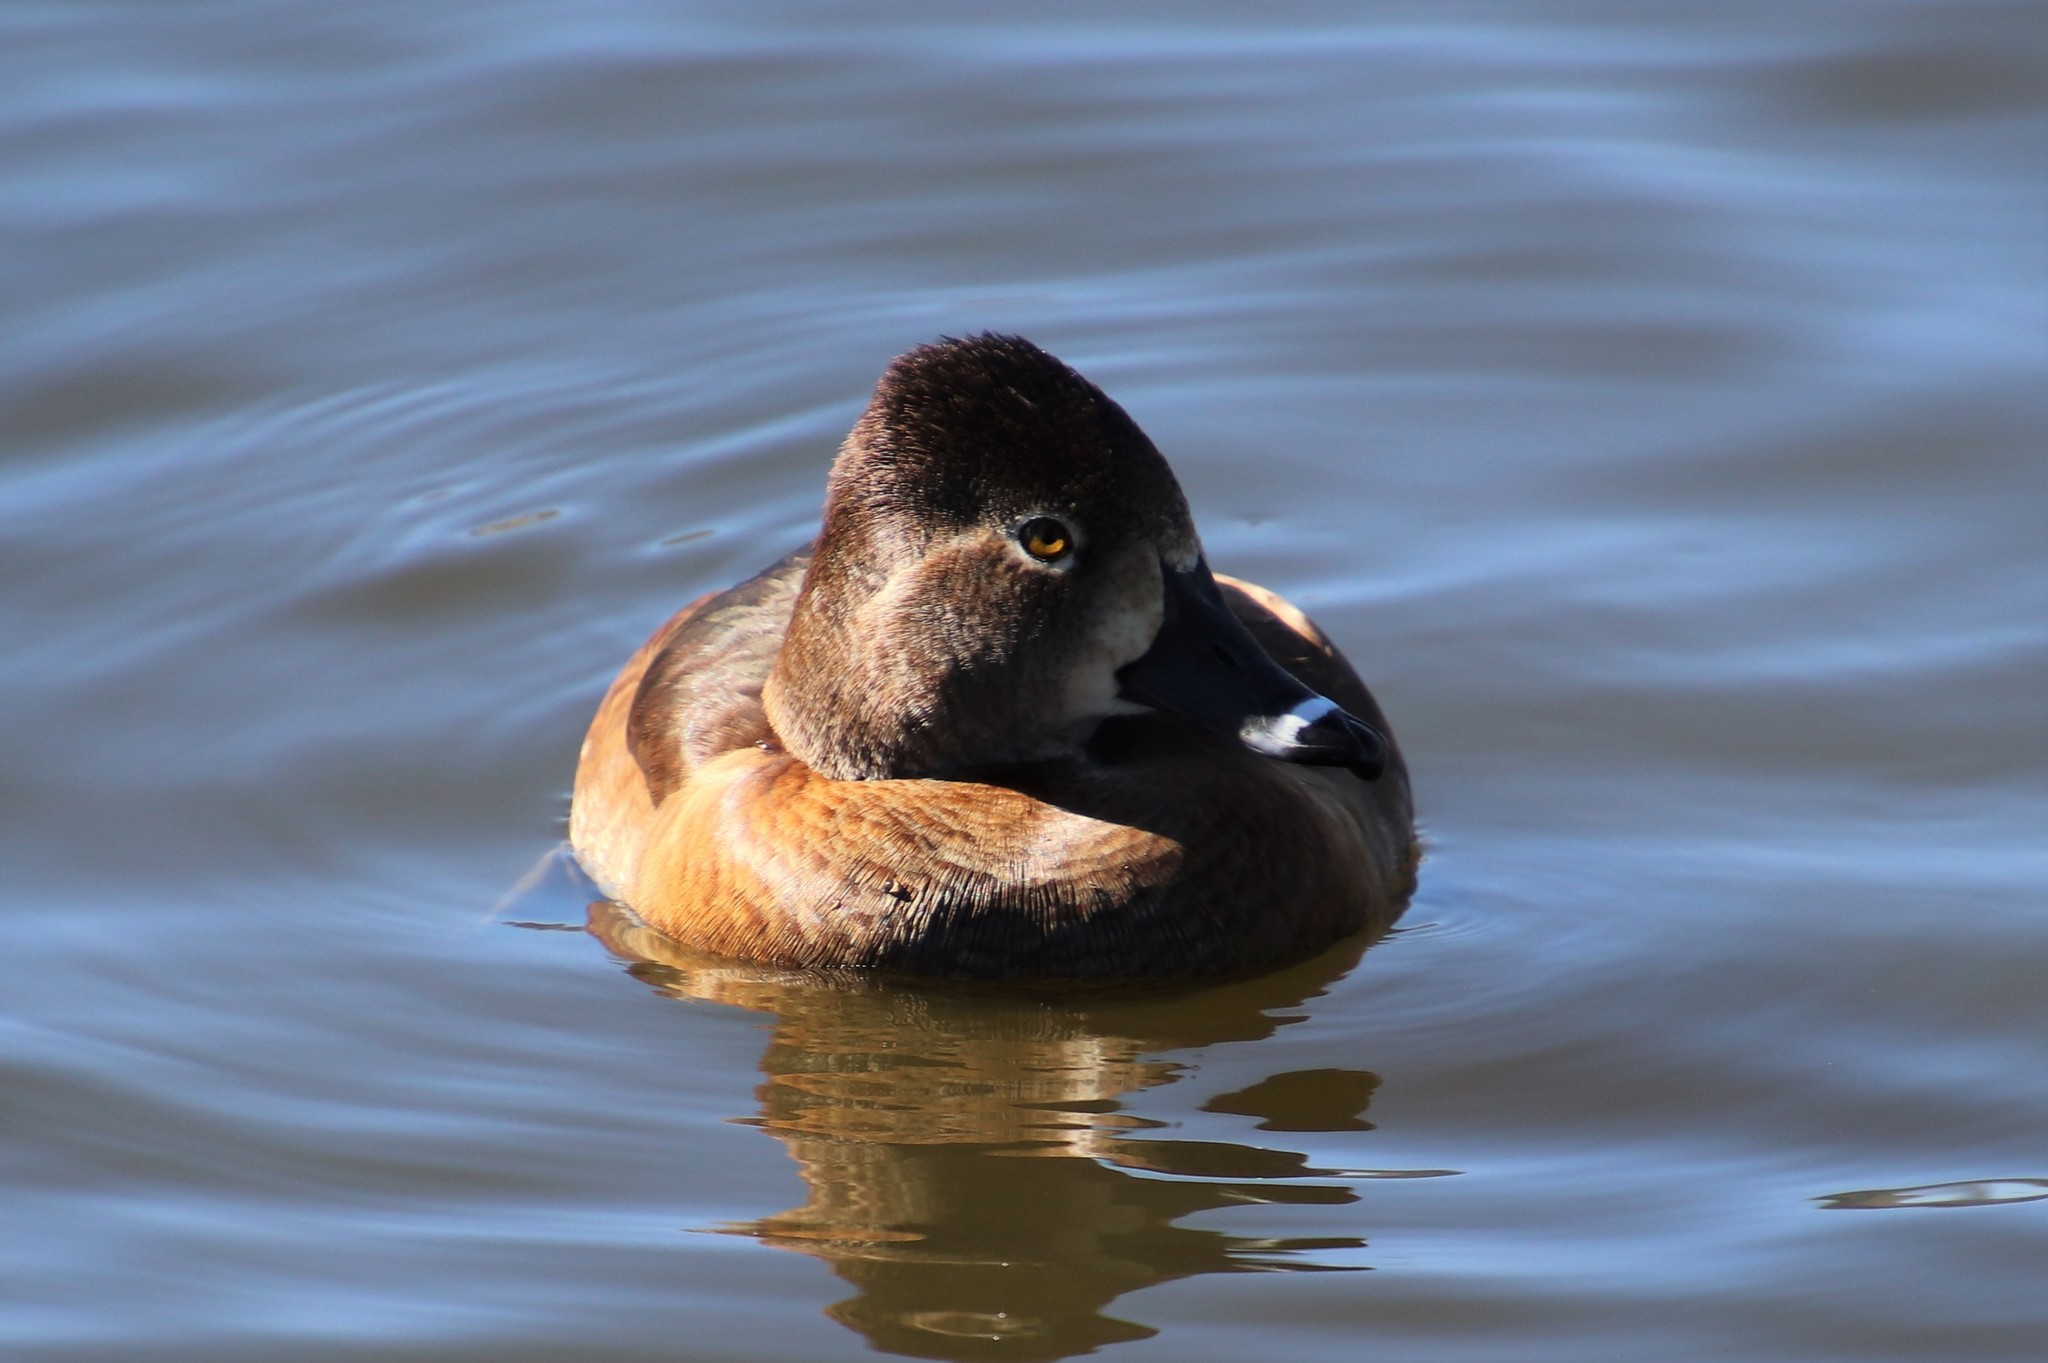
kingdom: Animalia
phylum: Chordata
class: Aves
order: Anseriformes
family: Anatidae
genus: Aythya
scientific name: Aythya collaris
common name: Ring-necked duck
